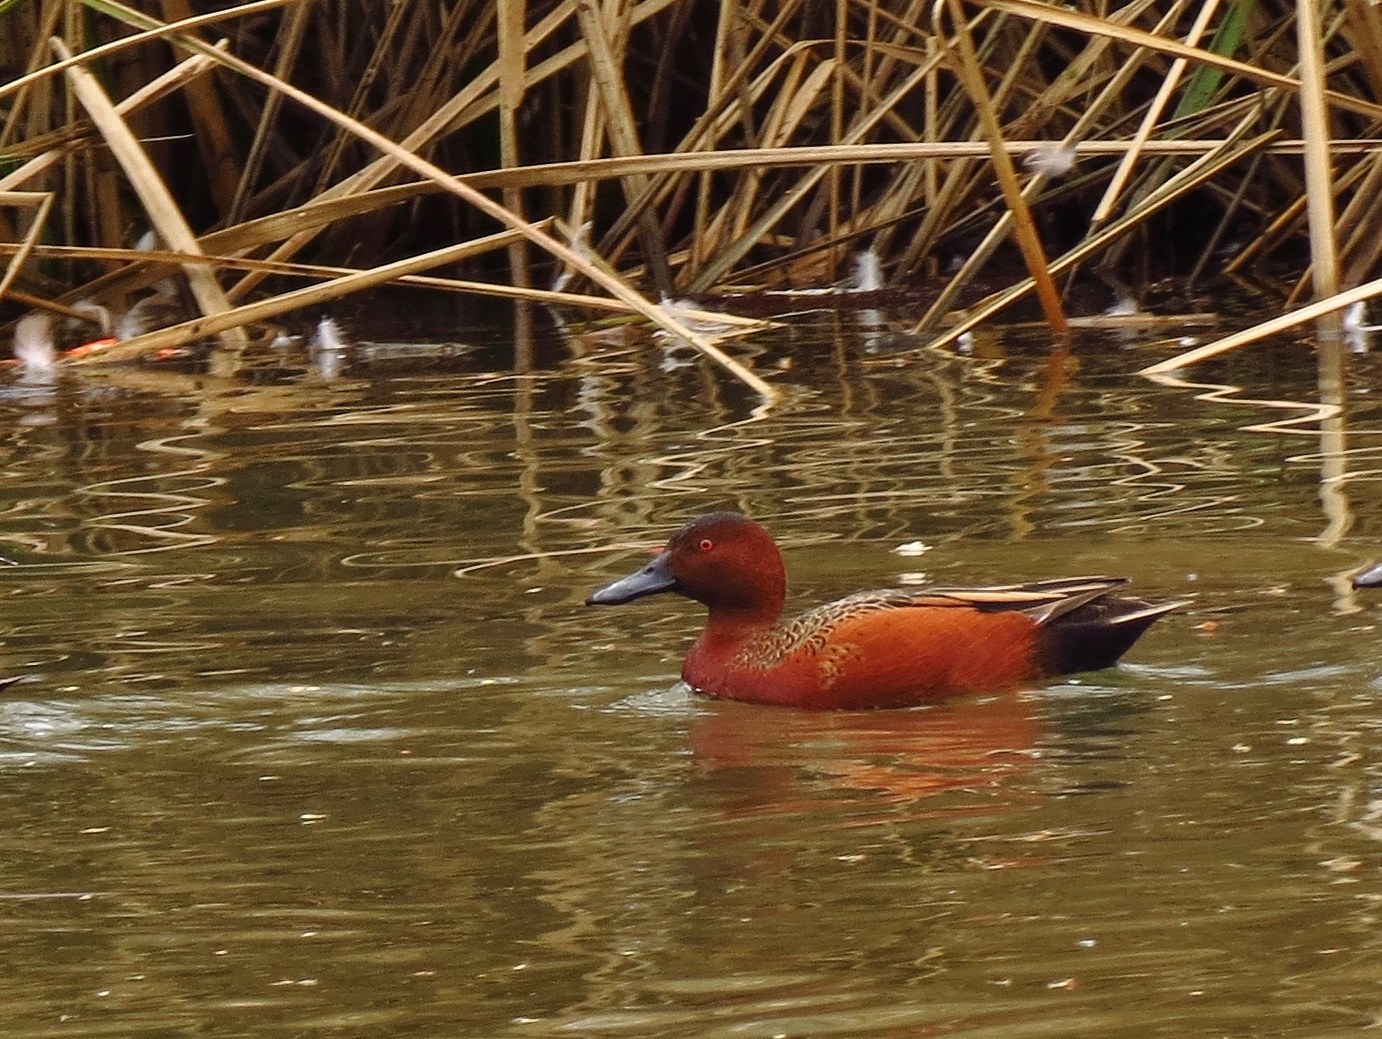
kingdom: Animalia
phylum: Chordata
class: Aves
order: Anseriformes
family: Anatidae
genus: Spatula
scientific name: Spatula cyanoptera
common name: Cinnamon teal
